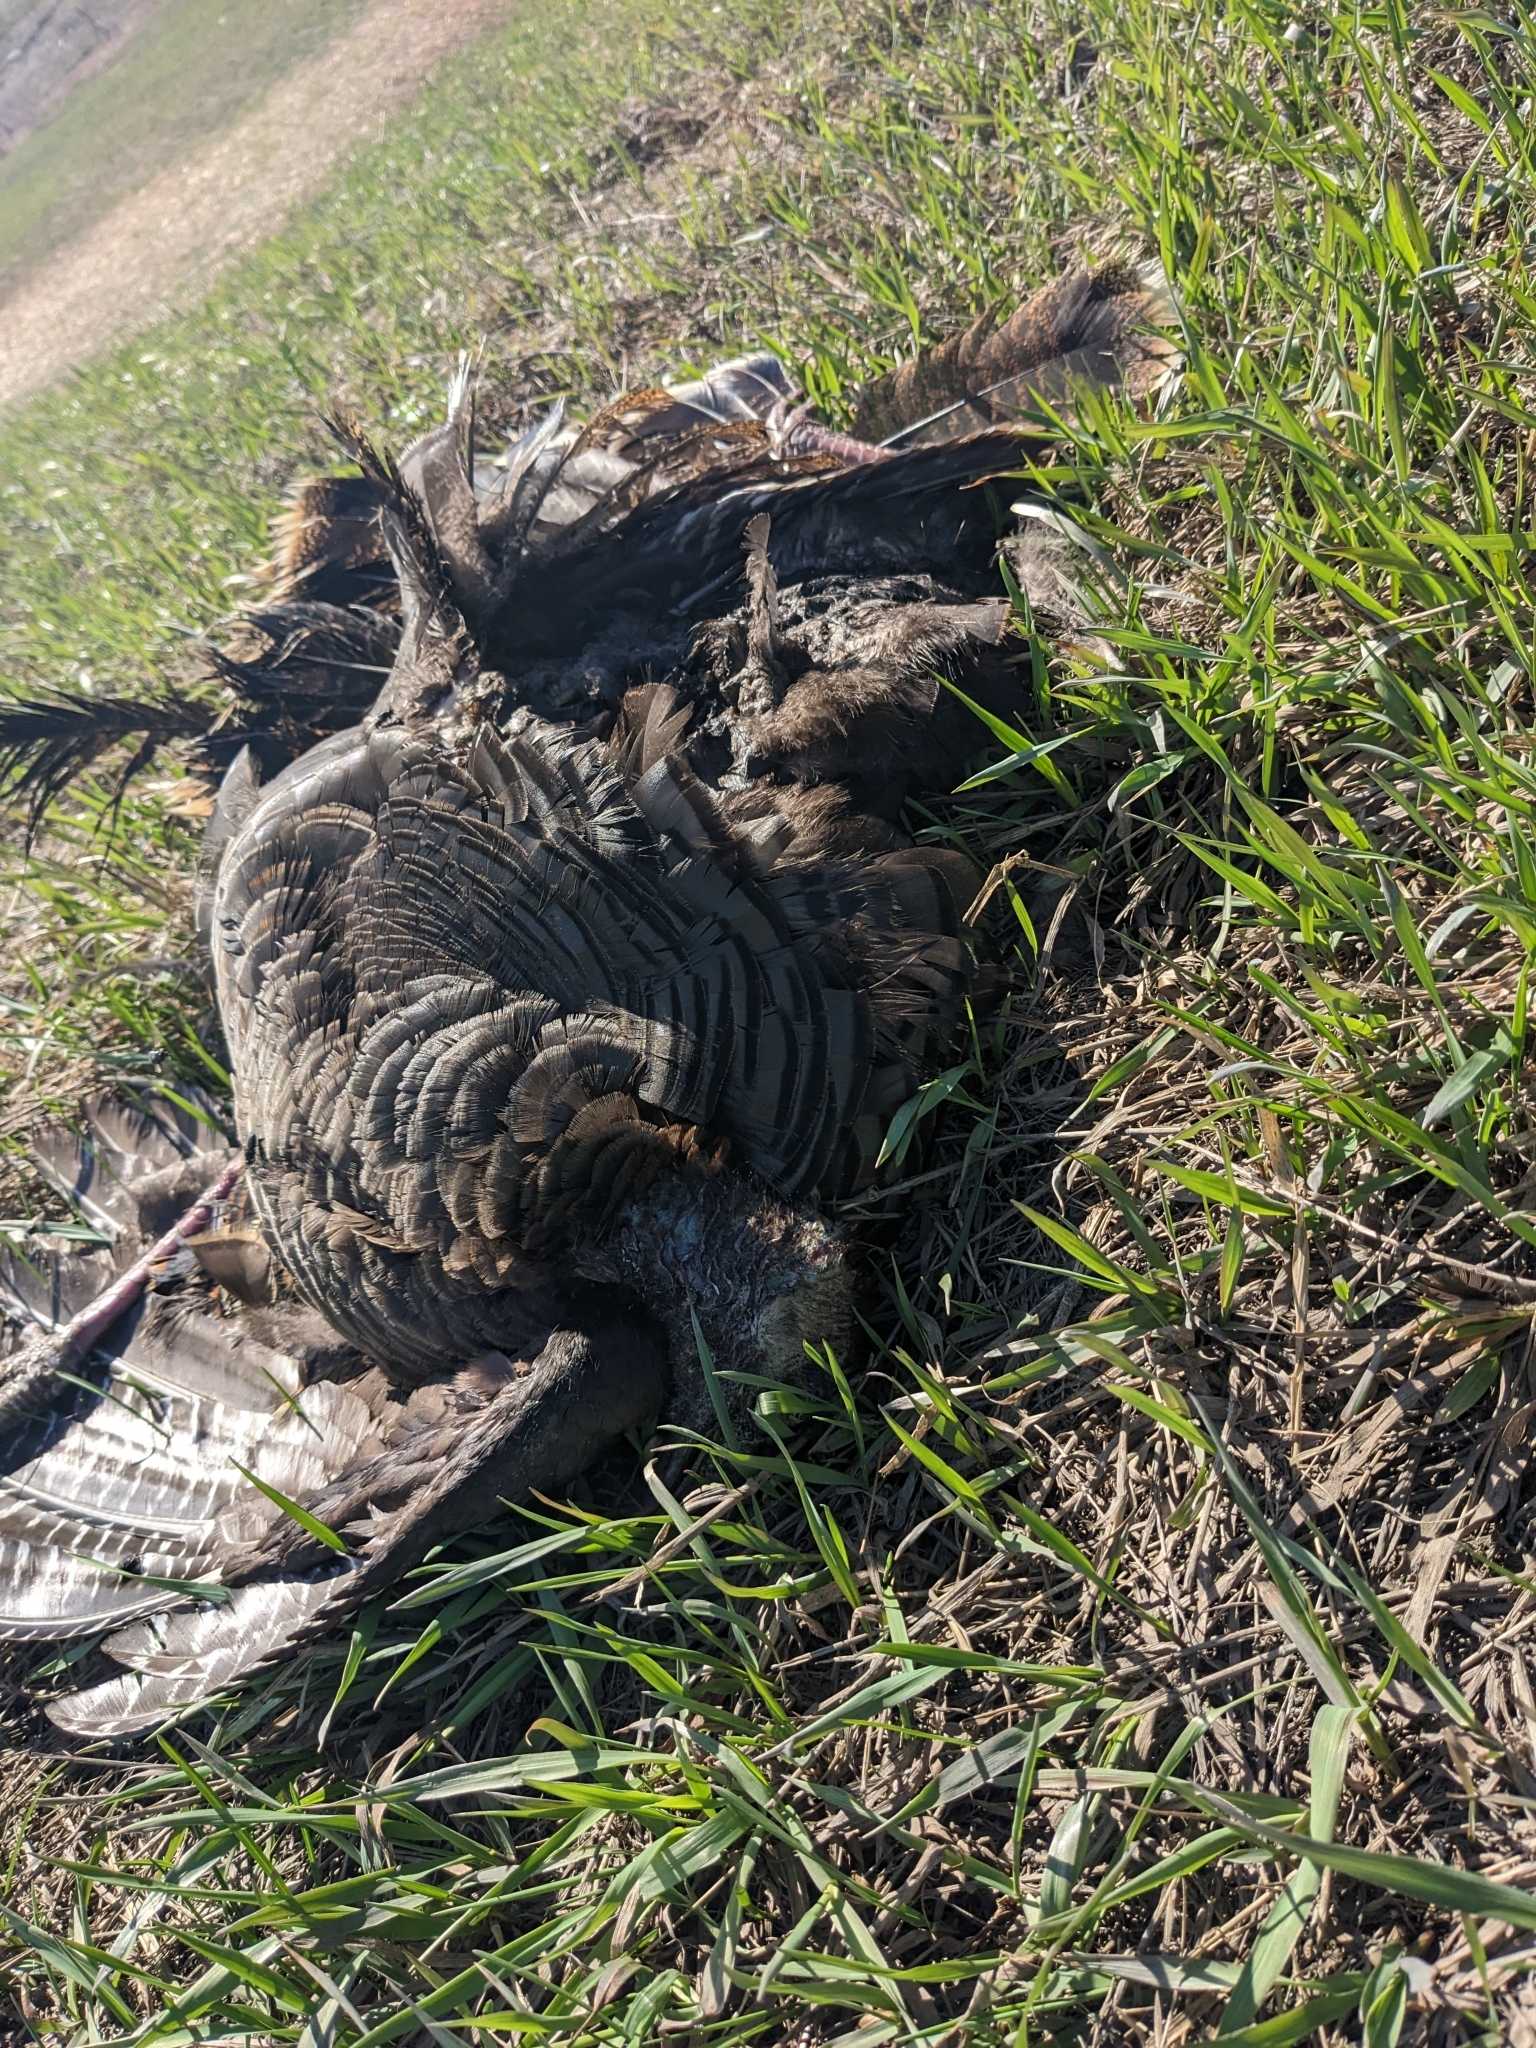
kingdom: Animalia
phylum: Chordata
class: Aves
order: Galliformes
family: Phasianidae
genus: Meleagris
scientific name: Meleagris gallopavo
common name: Wild turkey
